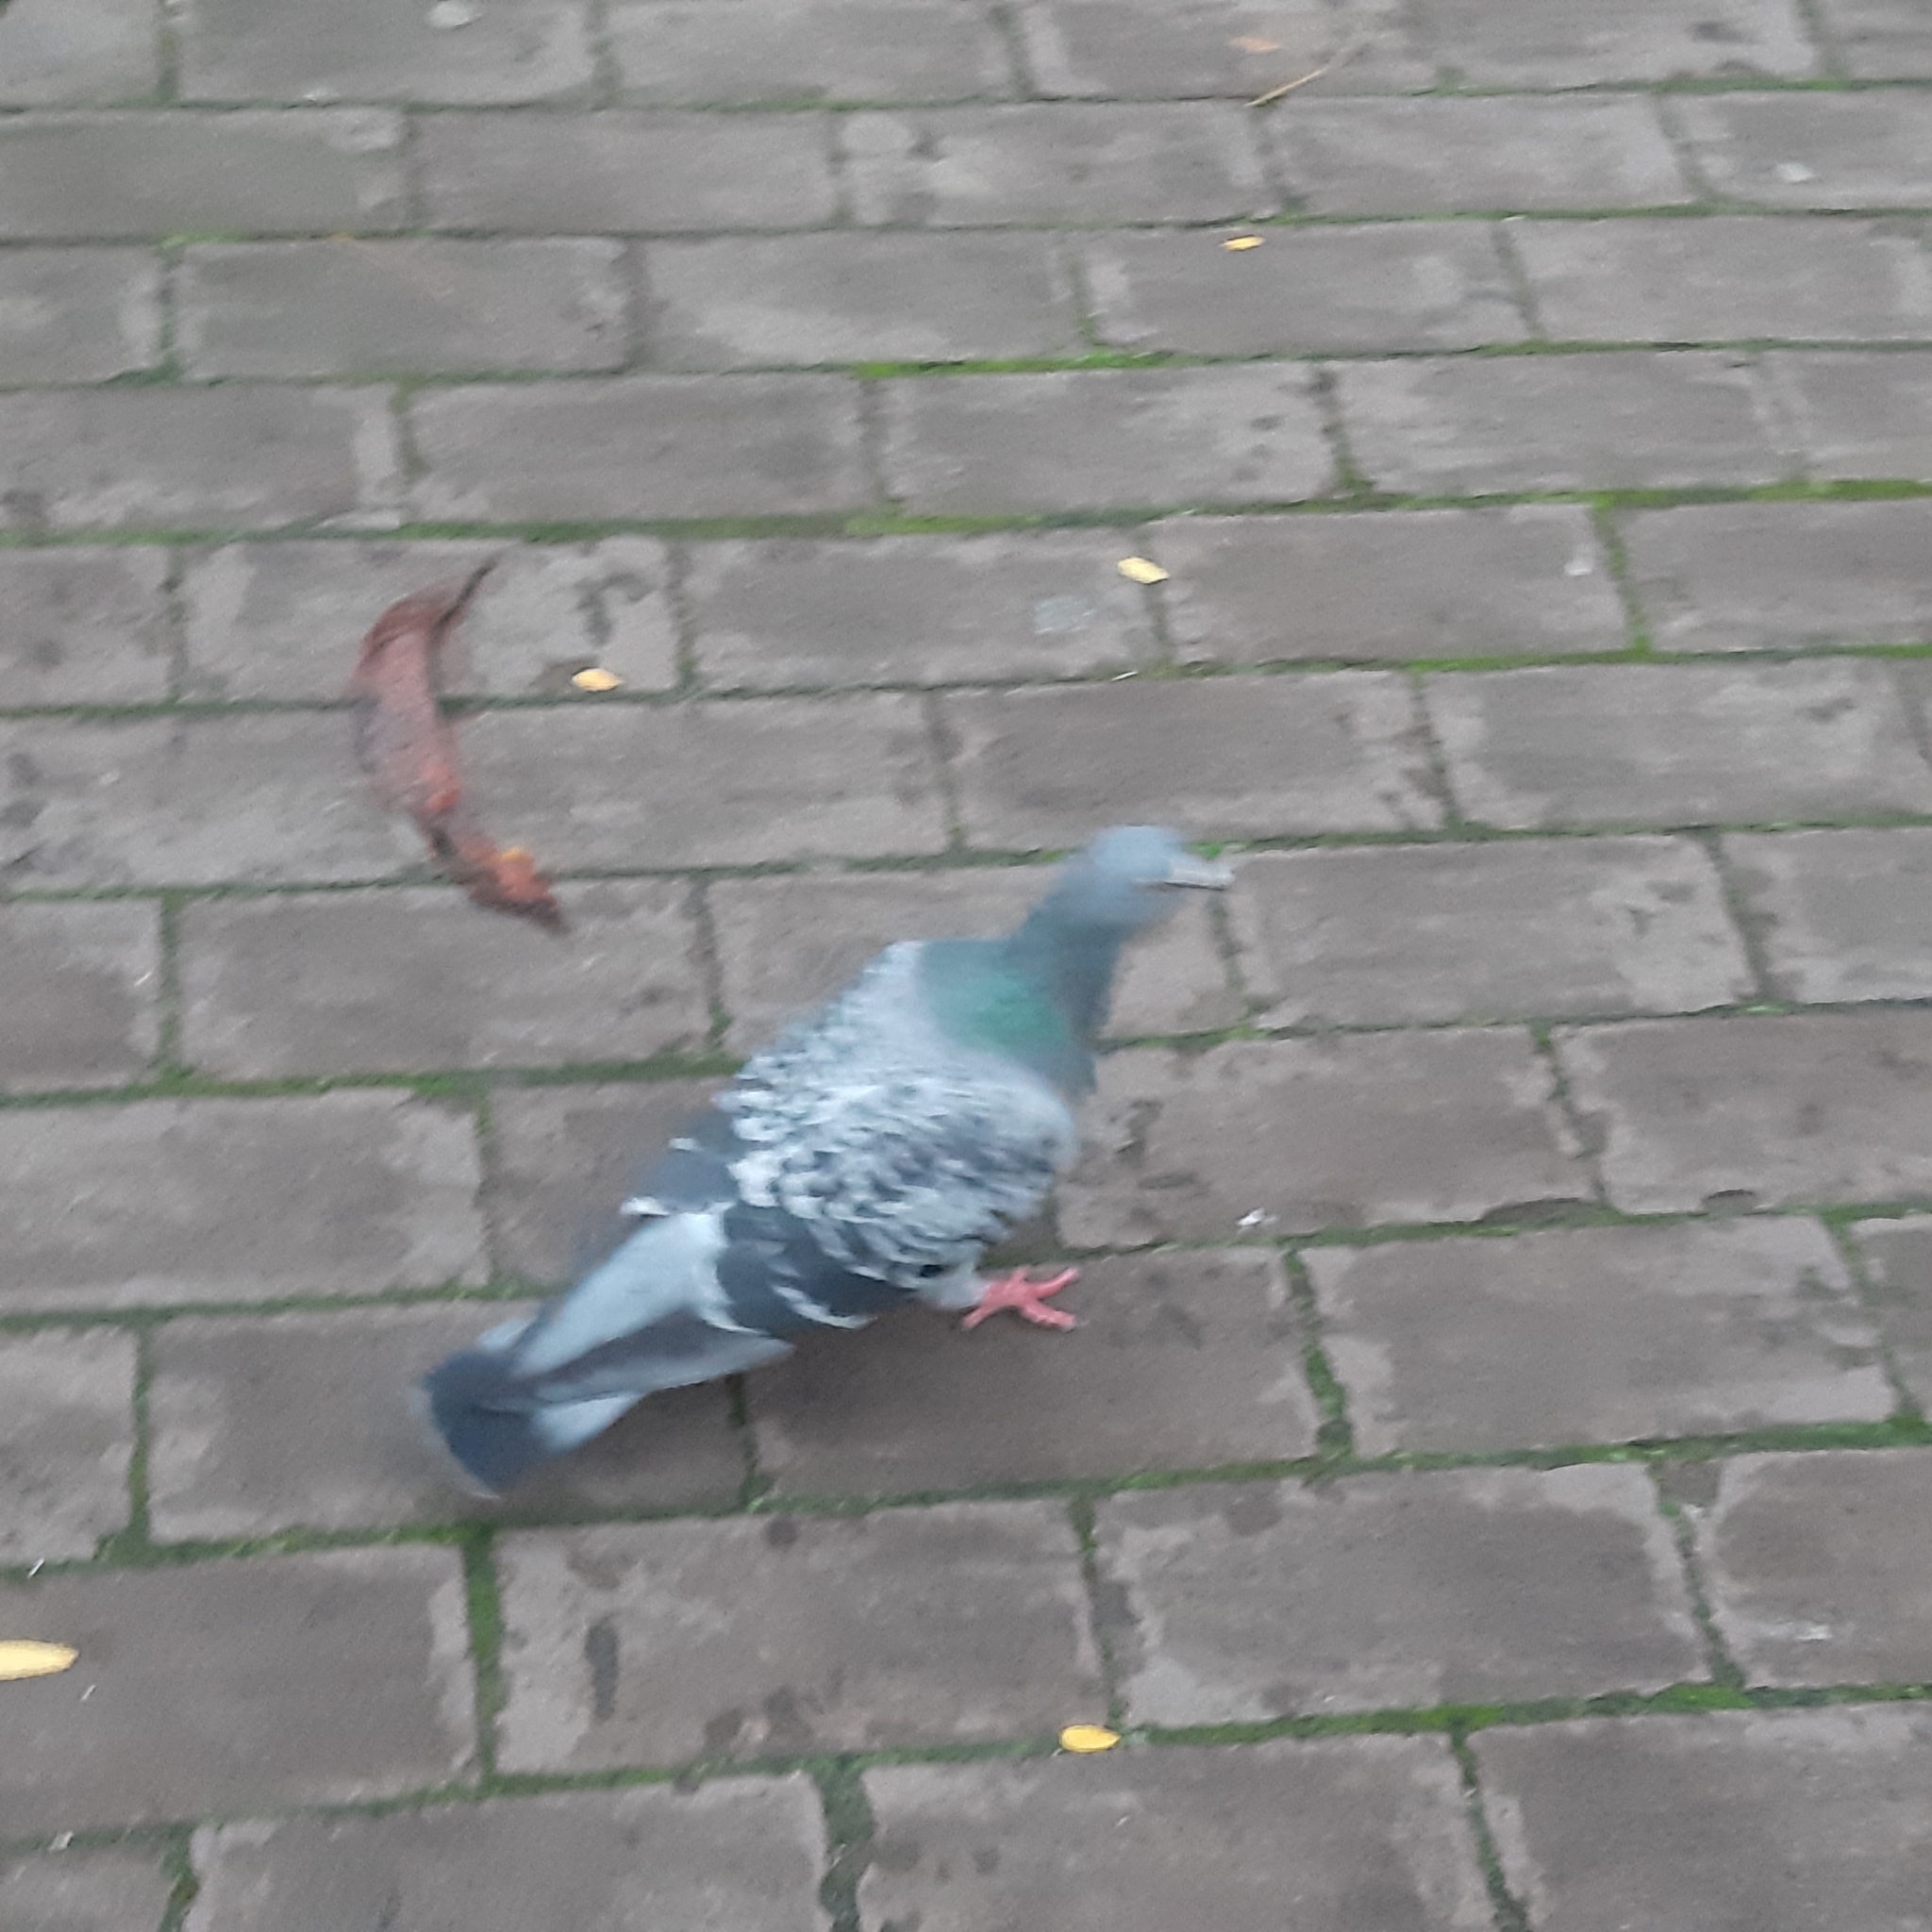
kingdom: Animalia
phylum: Chordata
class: Aves
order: Columbiformes
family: Columbidae
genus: Columba
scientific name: Columba livia
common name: Rock pigeon
